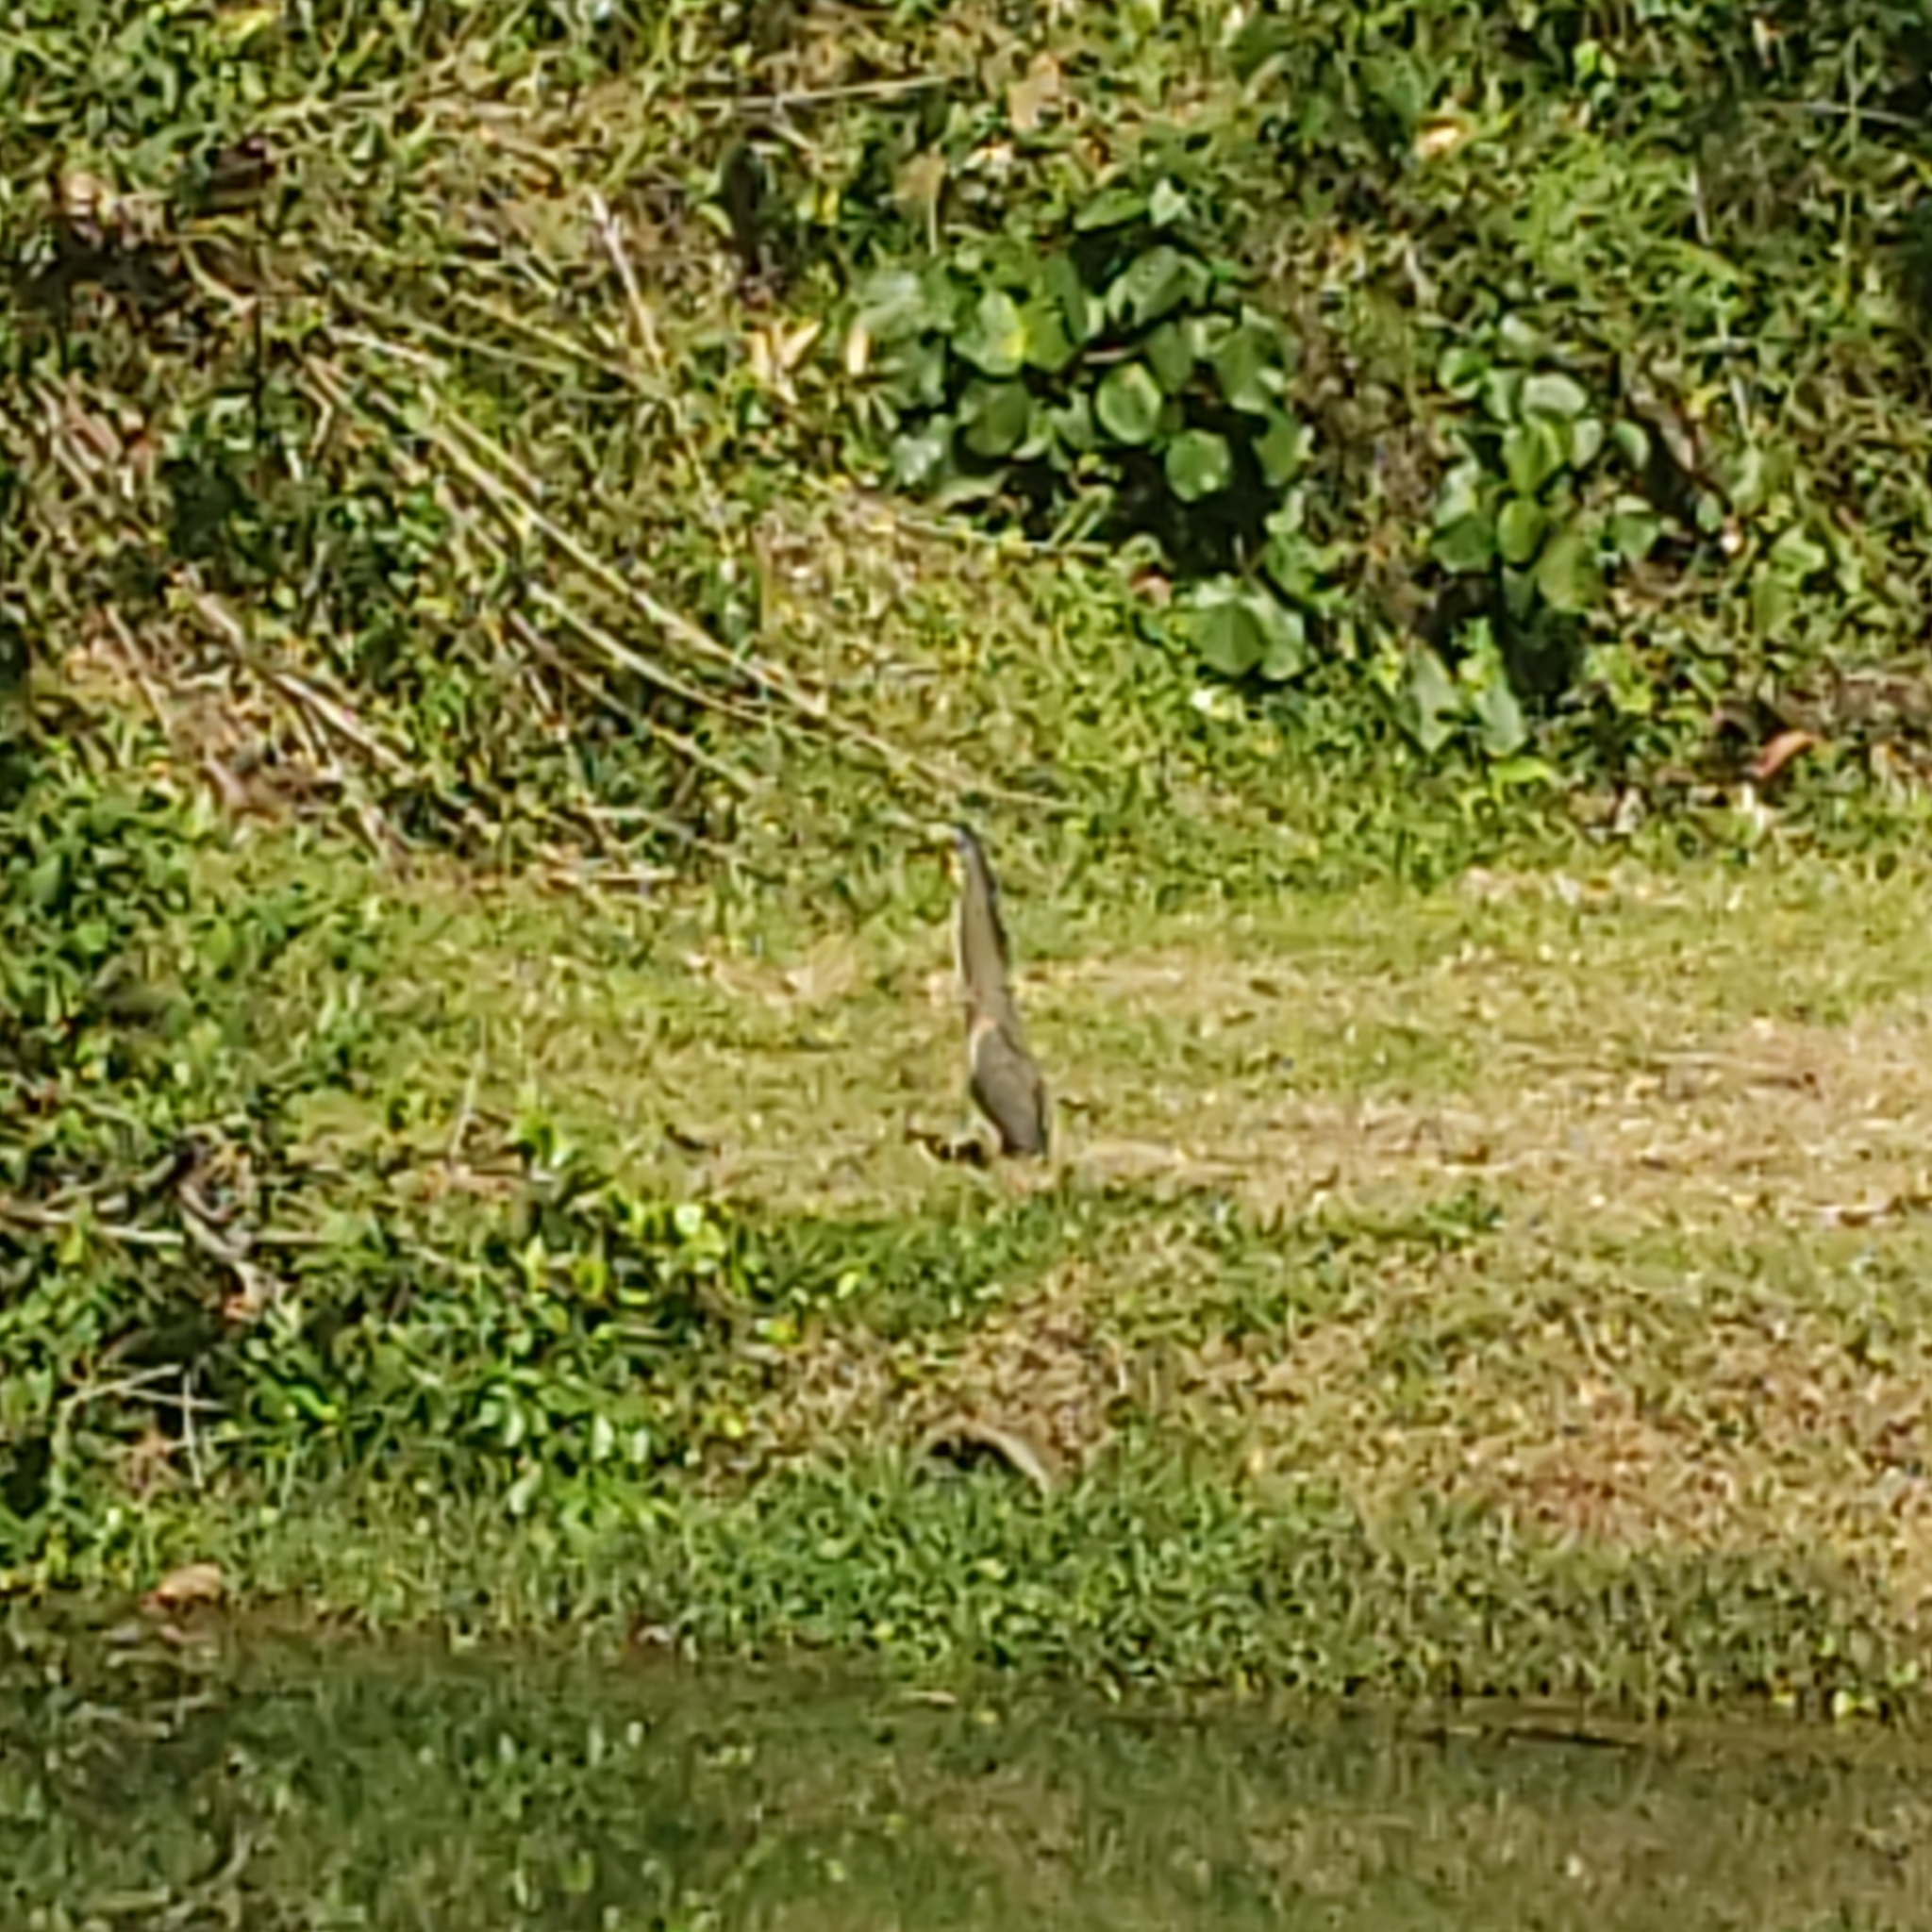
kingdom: Animalia
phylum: Chordata
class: Aves
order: Pelecaniformes
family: Ardeidae
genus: Tigrisoma
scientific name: Tigrisoma mexicanum
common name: Bare-throated tiger-heron
